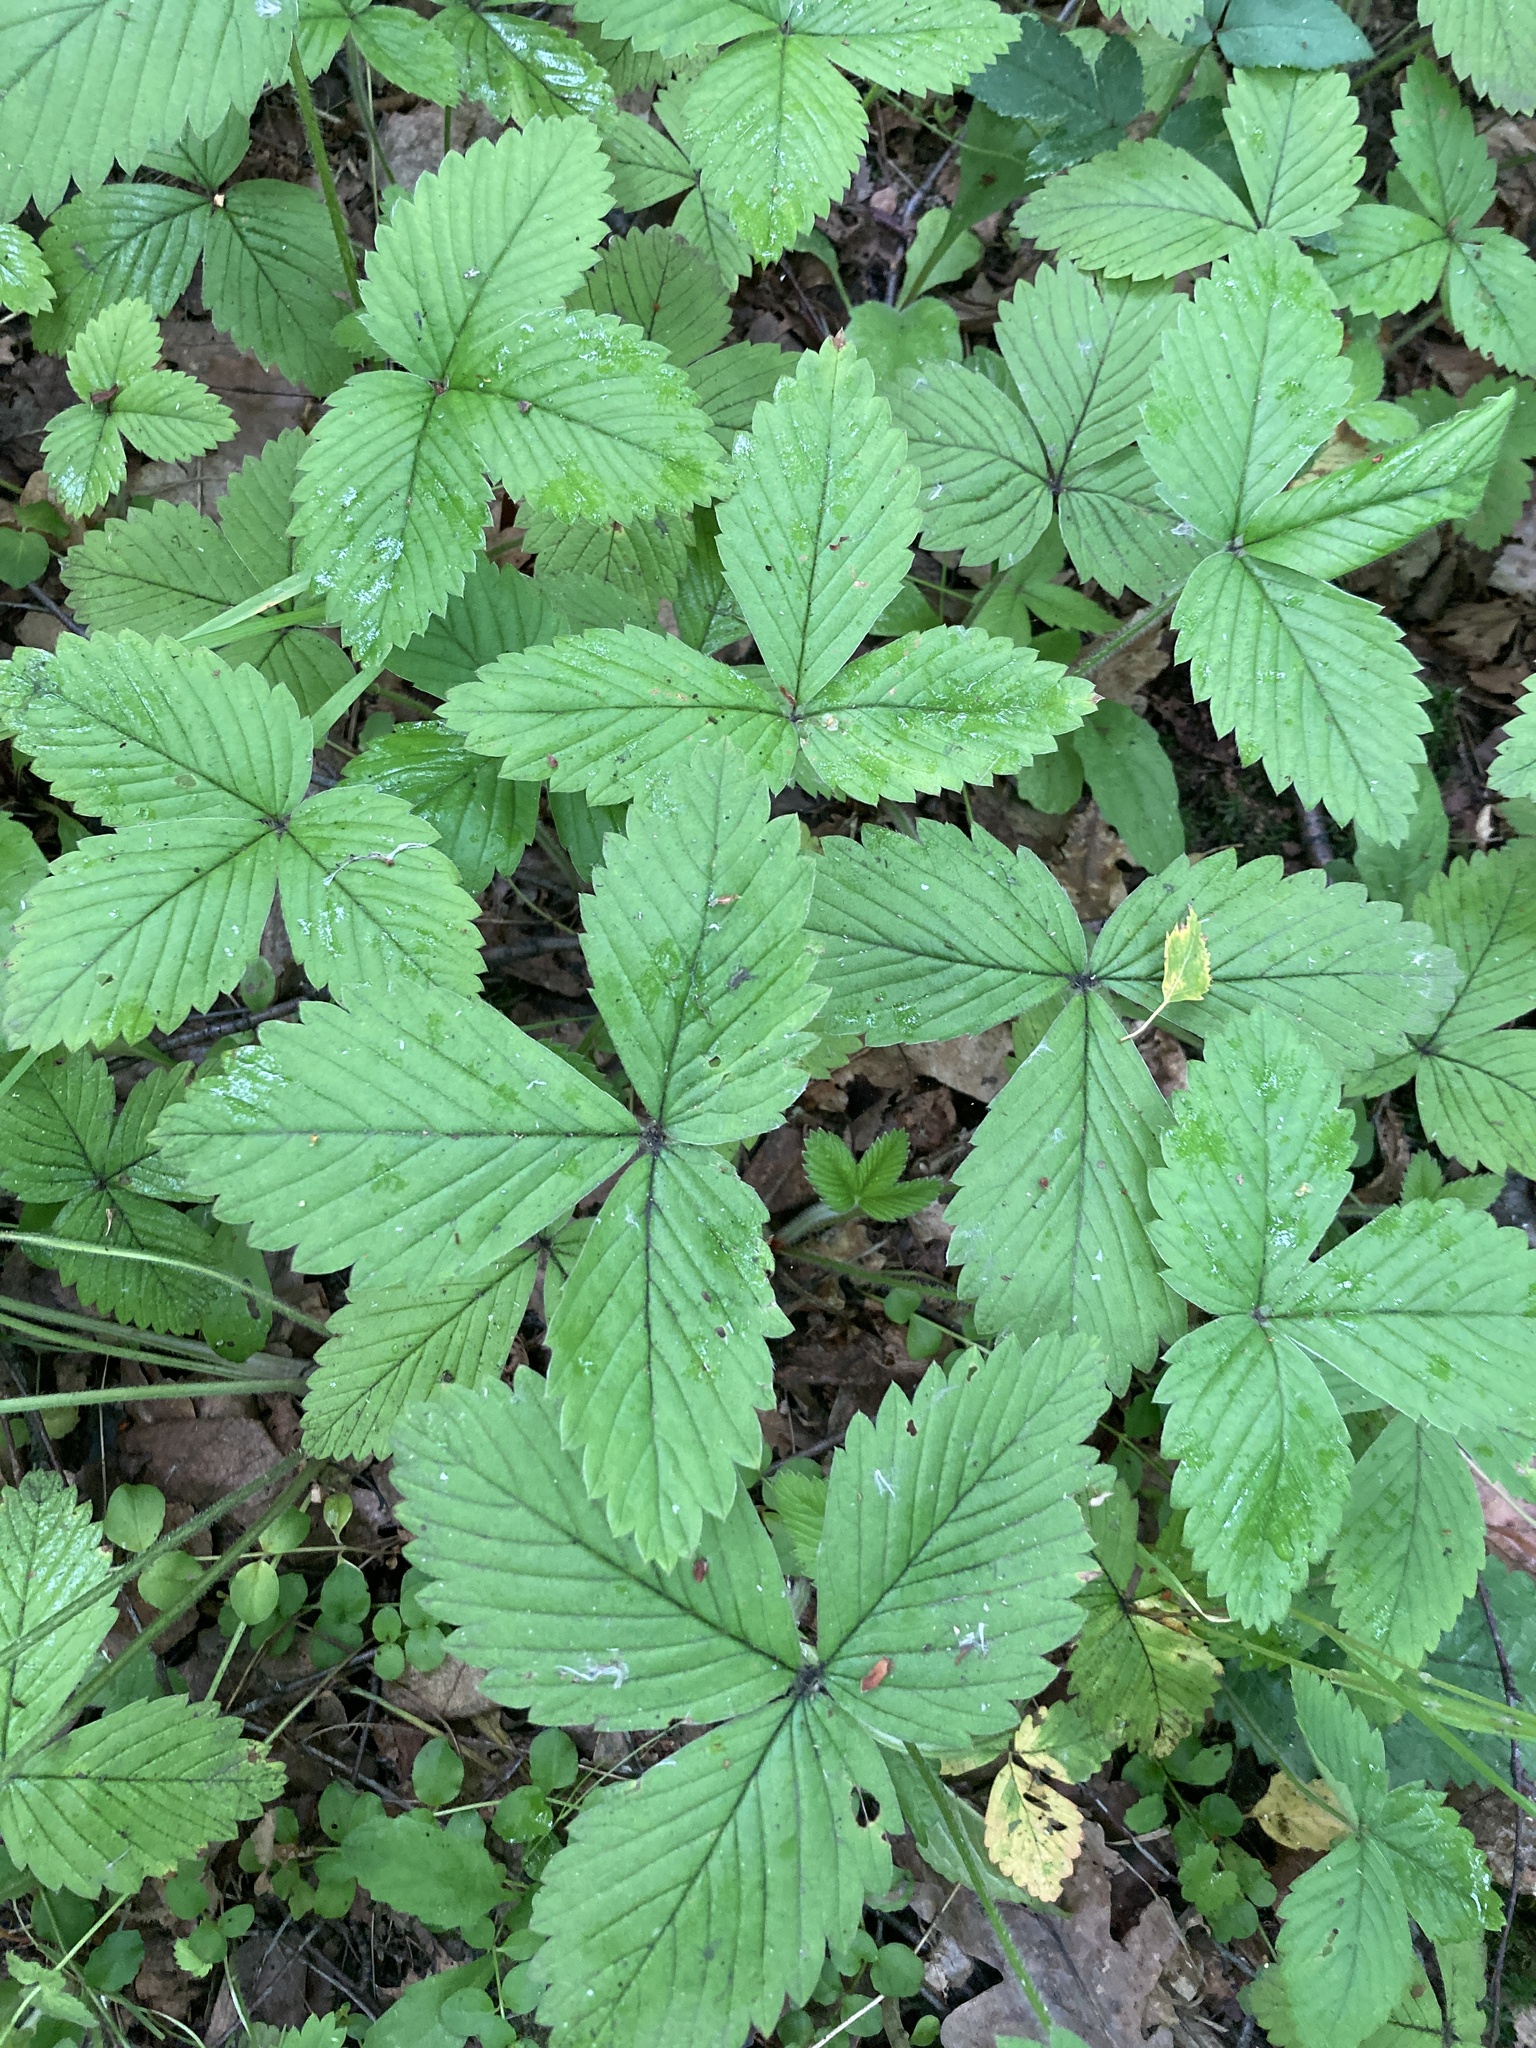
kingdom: Plantae
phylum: Tracheophyta
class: Magnoliopsida
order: Rosales
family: Rosaceae
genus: Fragaria
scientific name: Fragaria moschata
